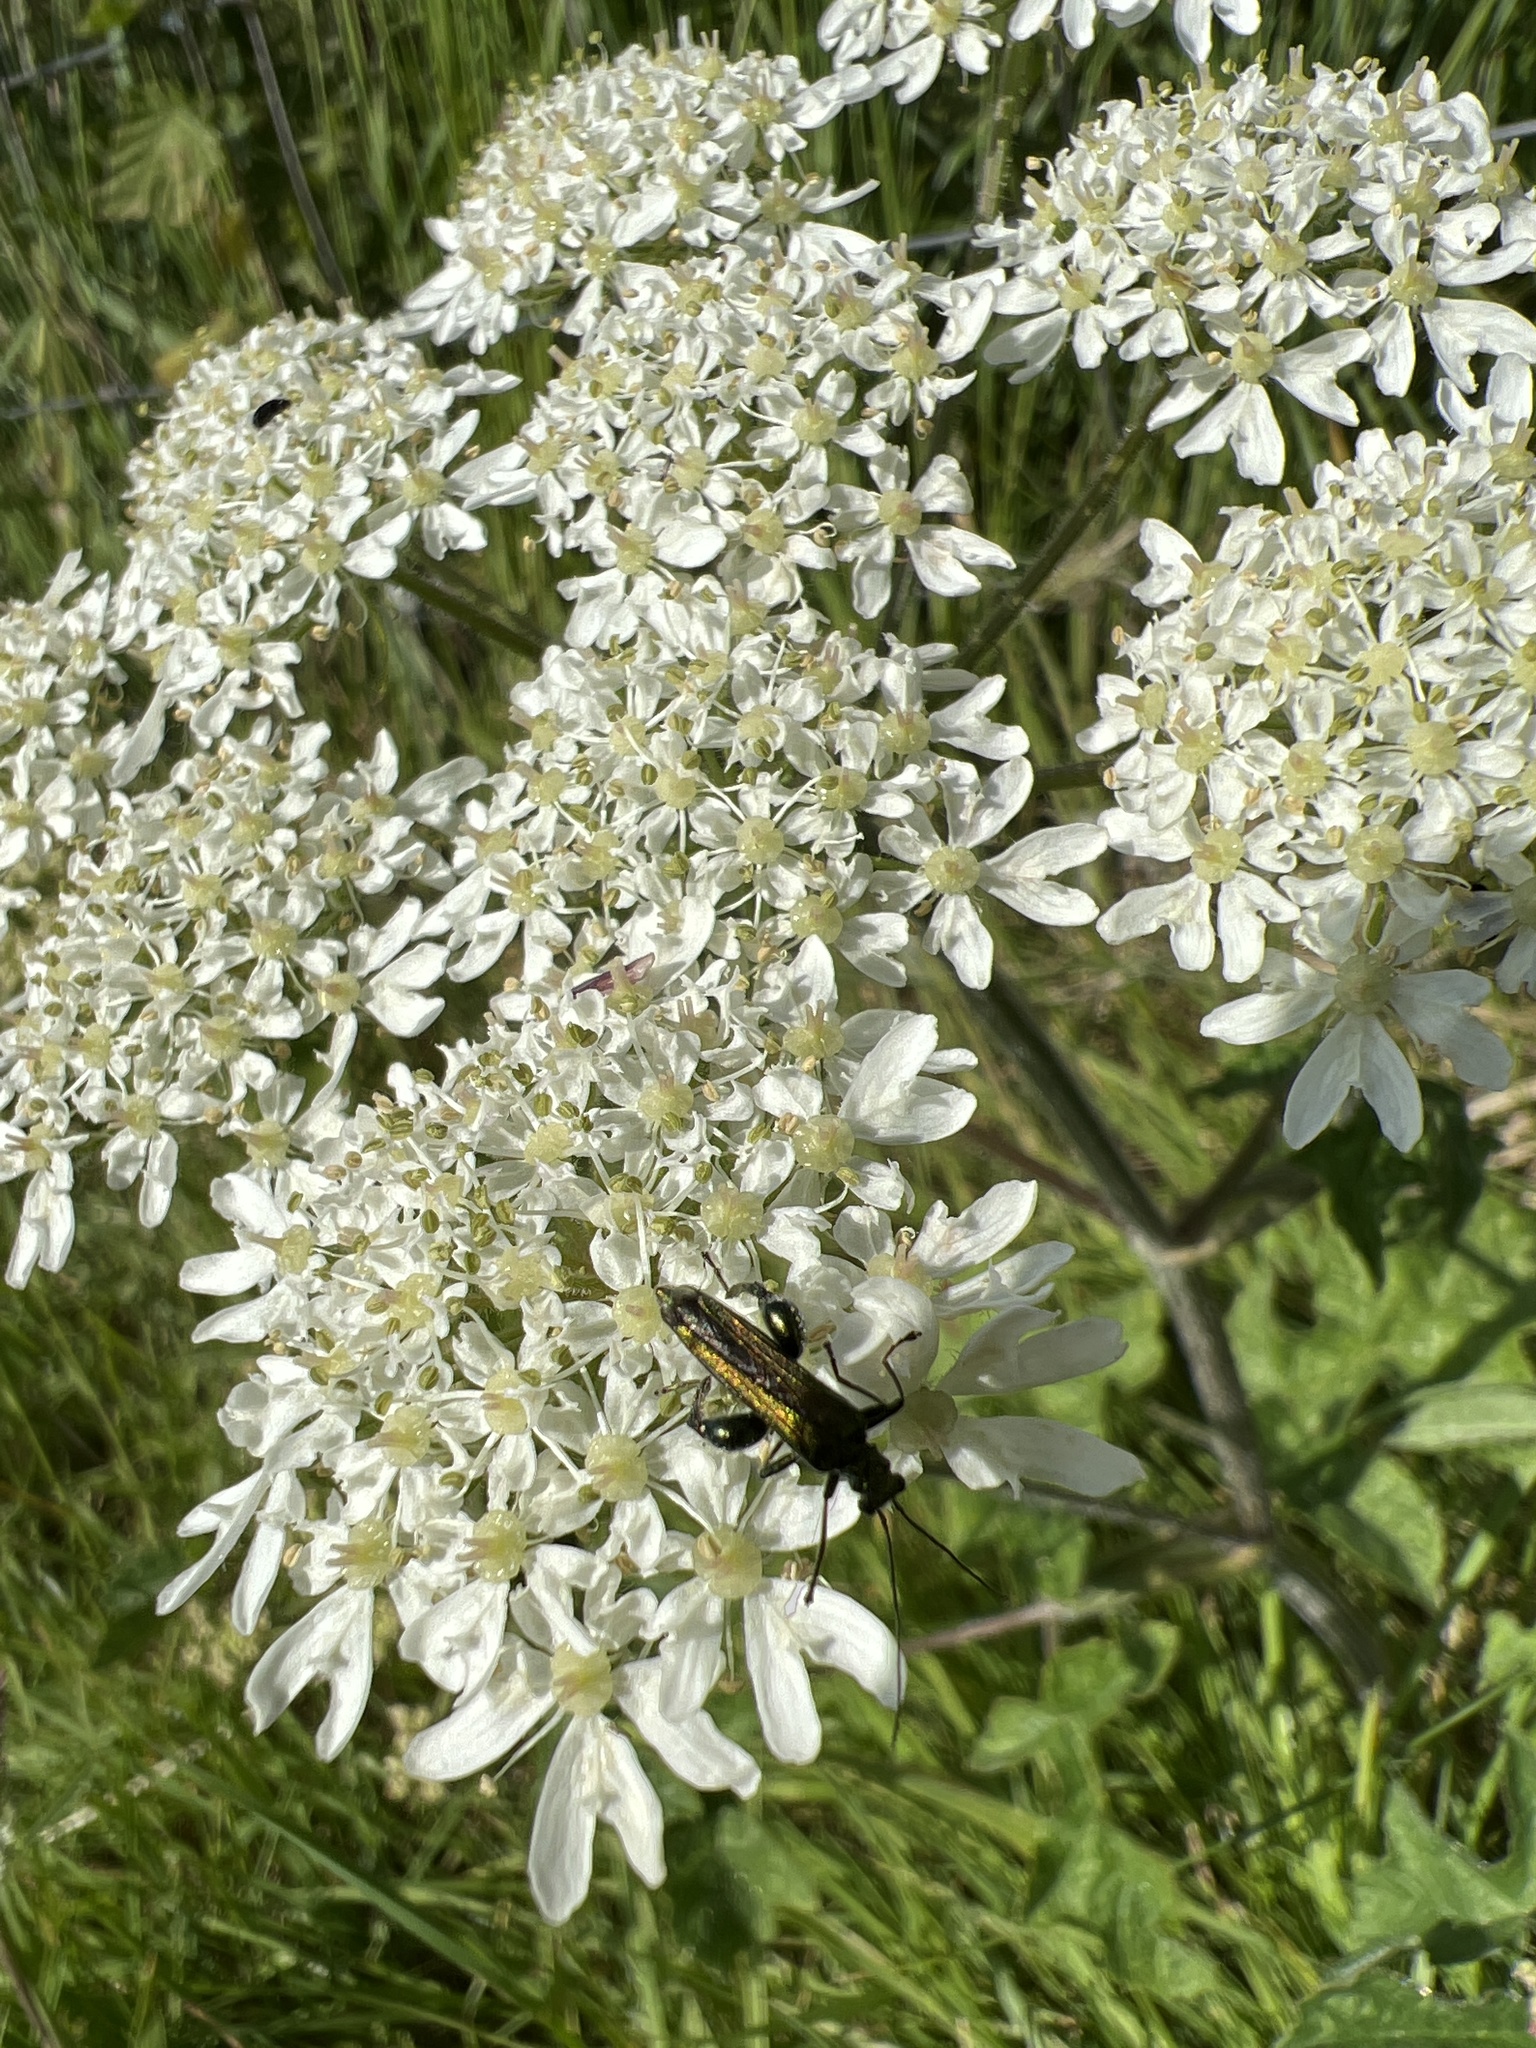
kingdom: Animalia
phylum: Arthropoda
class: Insecta
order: Coleoptera
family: Oedemeridae
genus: Oedemera
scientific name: Oedemera nobilis
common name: Swollen-thighed beetle
